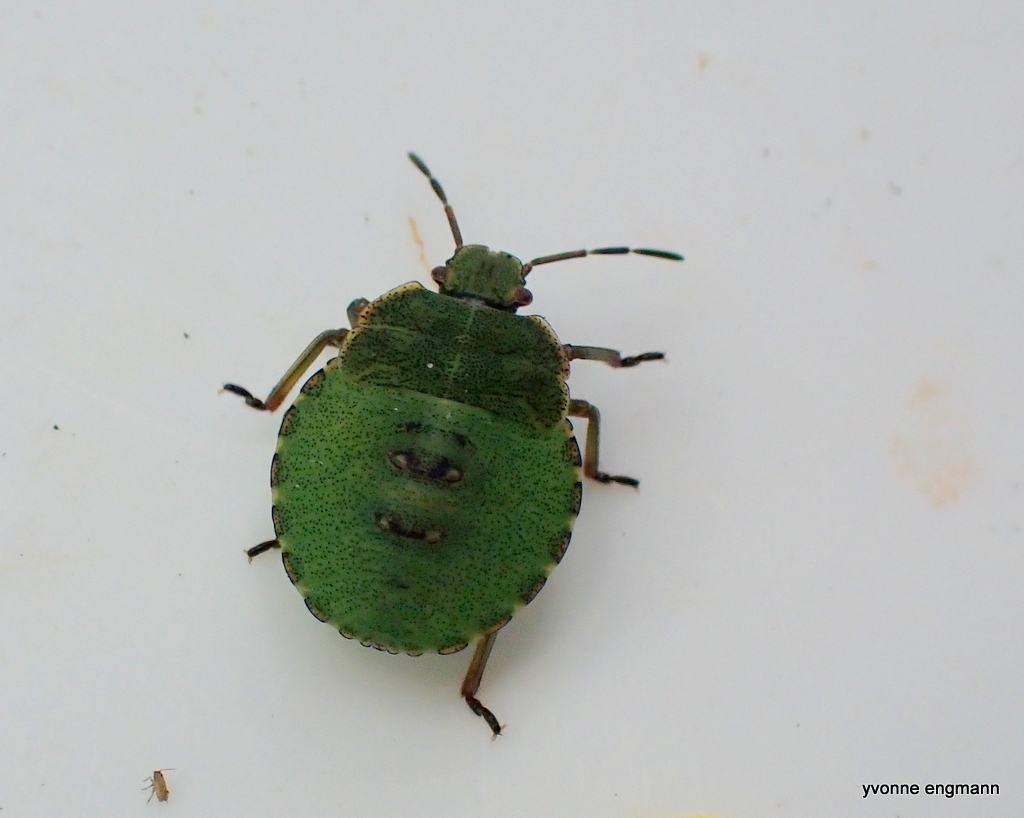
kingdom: Animalia
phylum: Arthropoda
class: Insecta
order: Hemiptera
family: Pentatomidae
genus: Palomena
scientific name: Palomena prasina
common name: Green shieldbug
